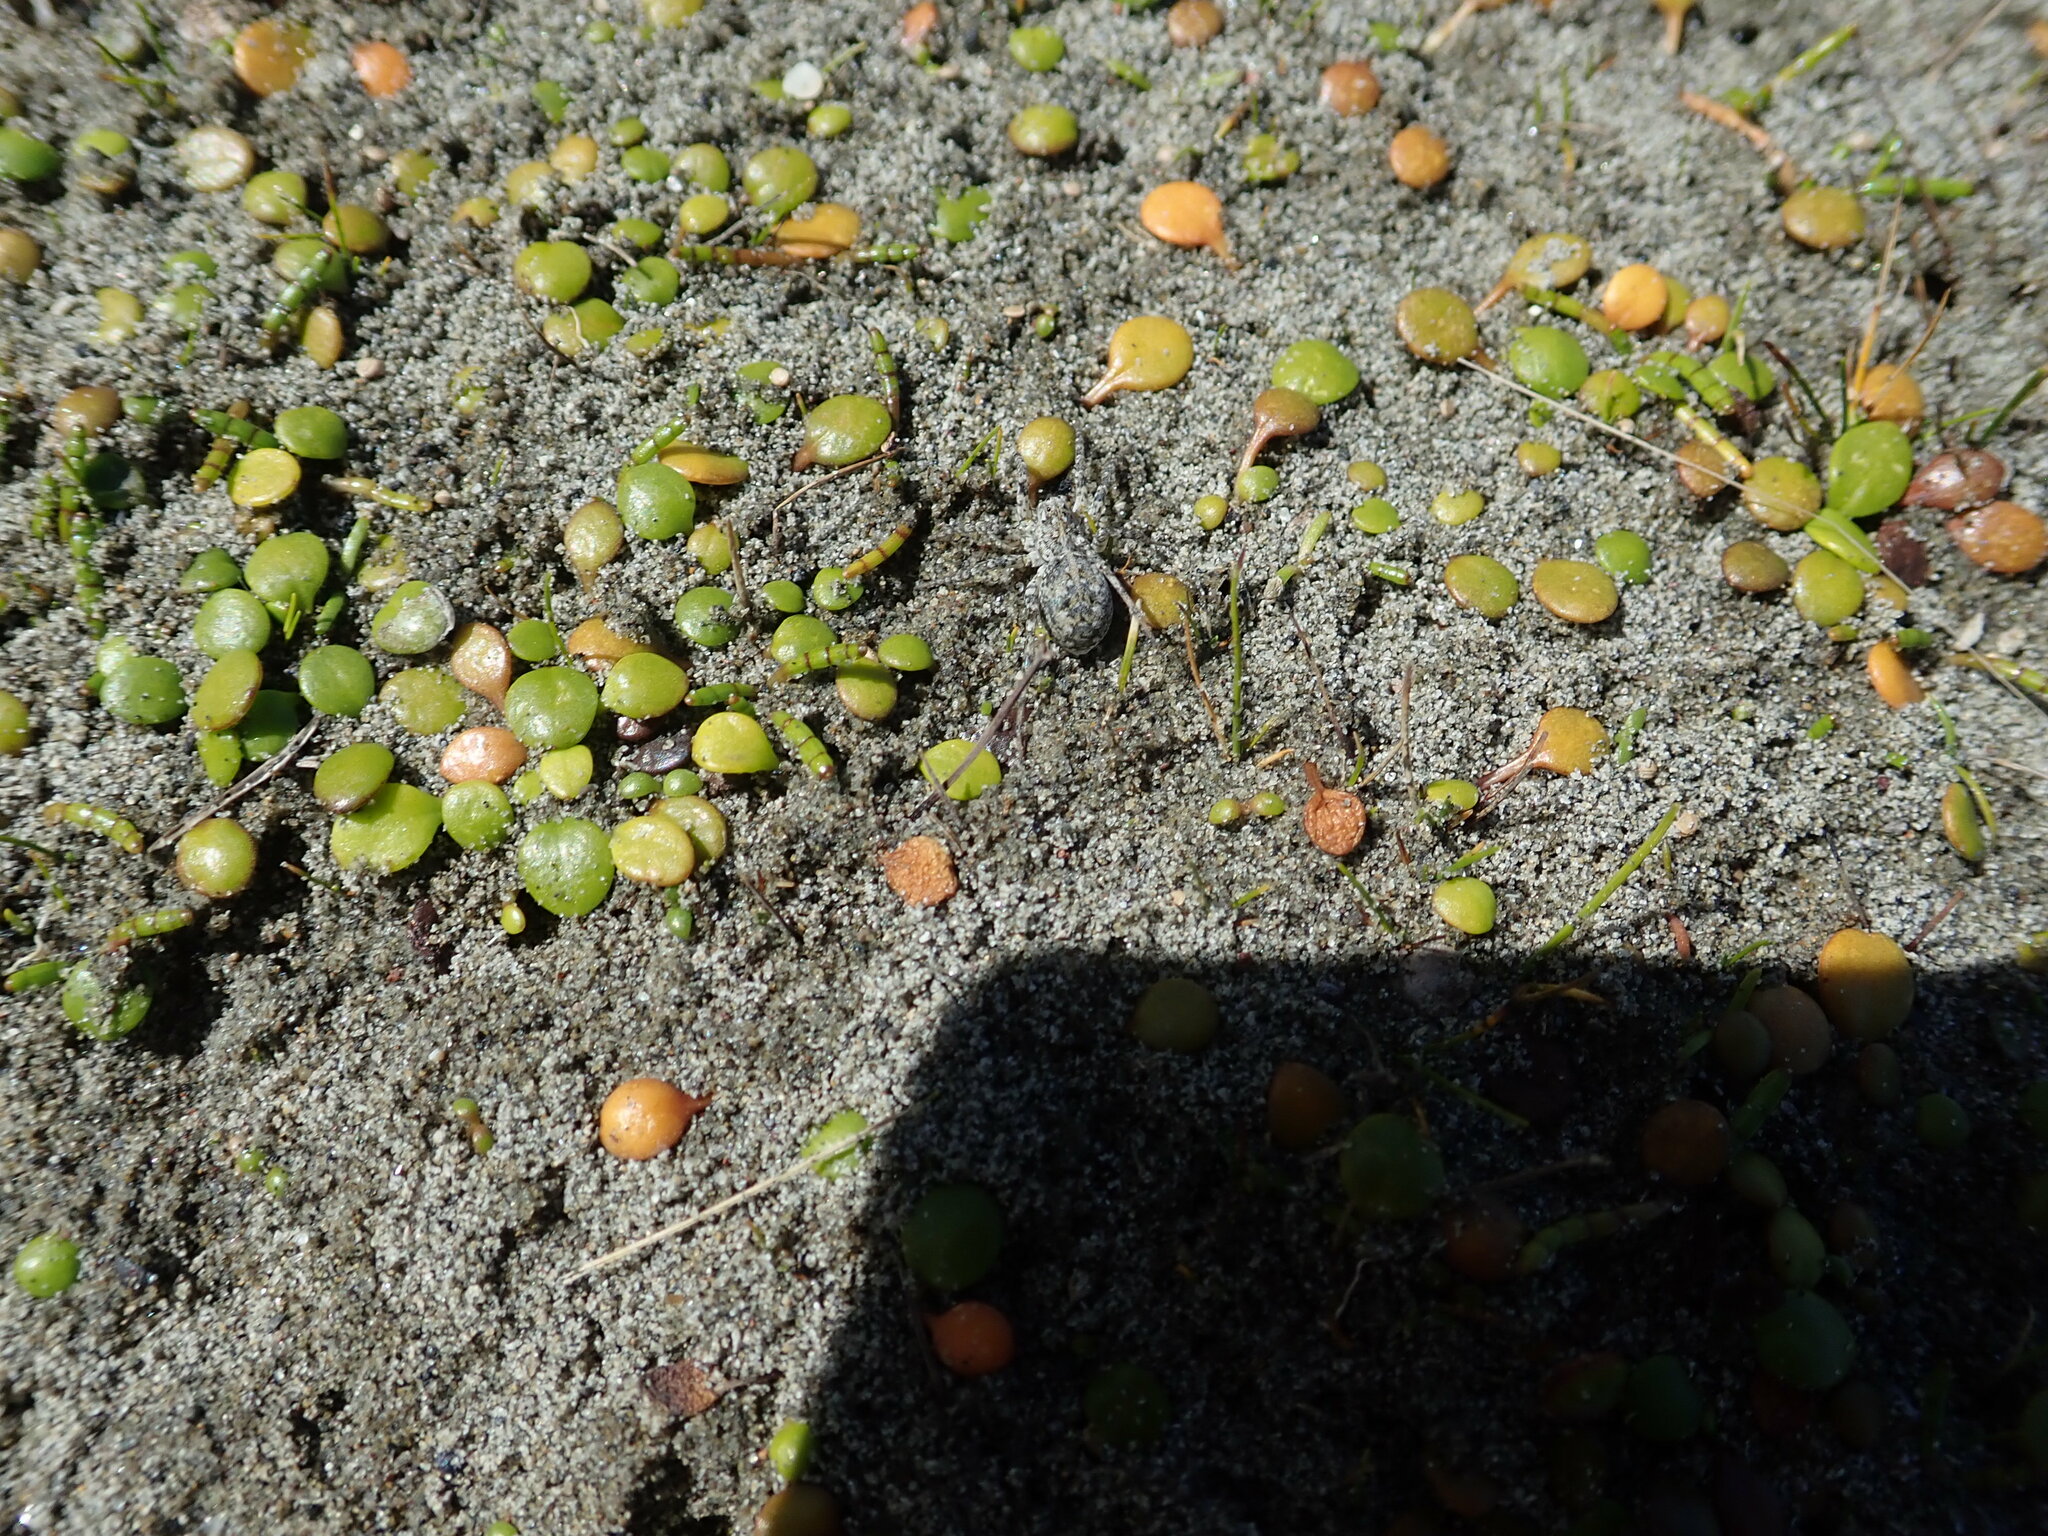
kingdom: Animalia
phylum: Arthropoda
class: Arachnida
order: Araneae
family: Lycosidae
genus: Anoteropsis
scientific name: Anoteropsis litoralis
